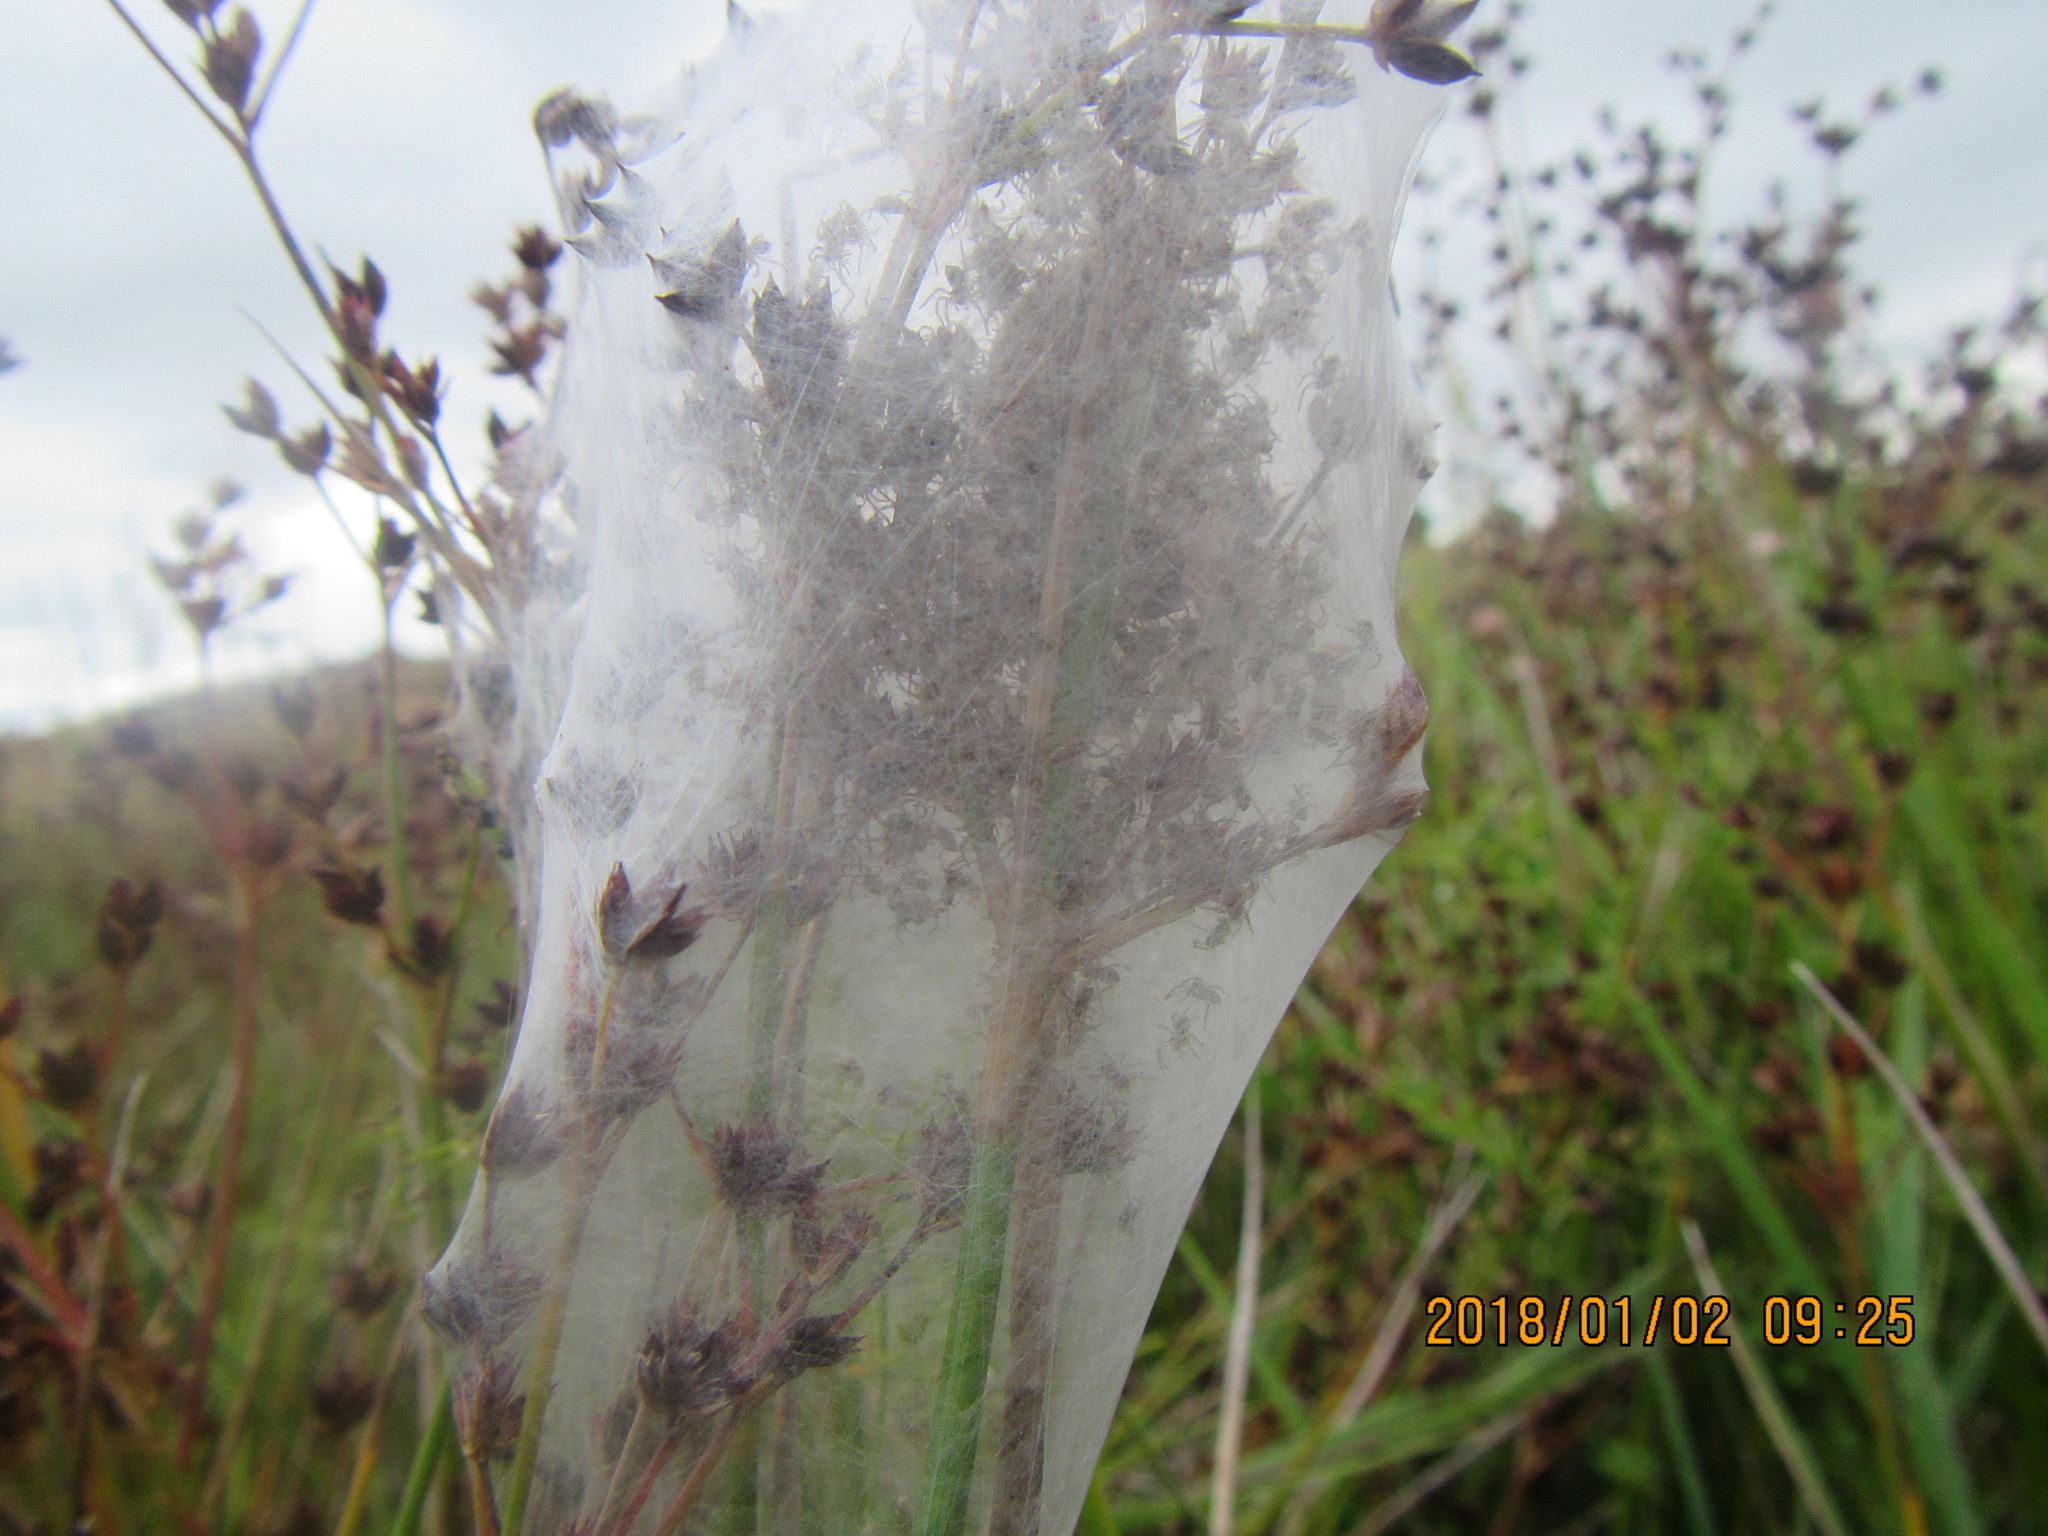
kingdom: Animalia
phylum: Arthropoda
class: Arachnida
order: Araneae
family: Pisauridae
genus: Dolomedes
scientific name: Dolomedes minor
